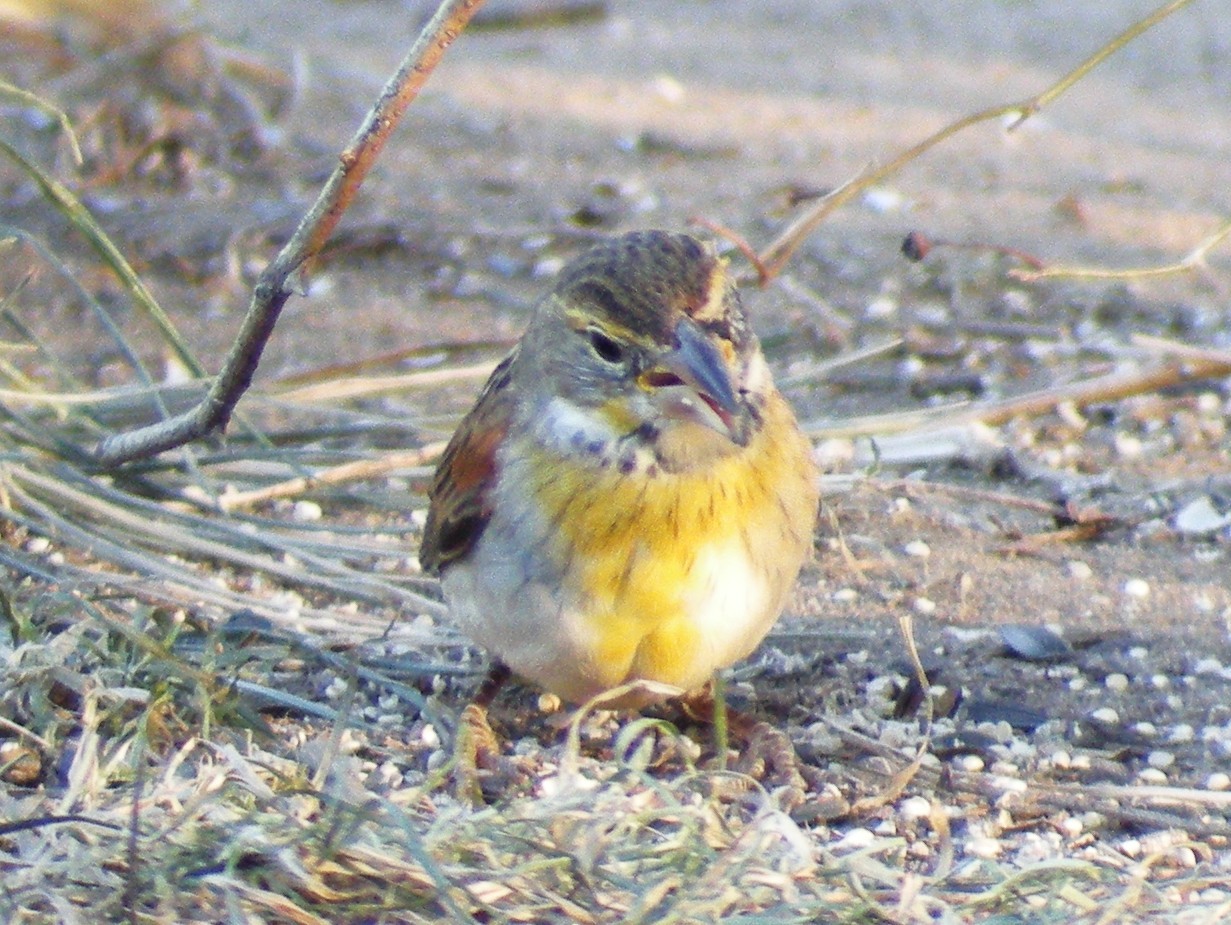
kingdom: Animalia
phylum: Chordata
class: Aves
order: Passeriformes
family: Cardinalidae
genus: Spiza
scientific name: Spiza americana
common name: Dickcissel
